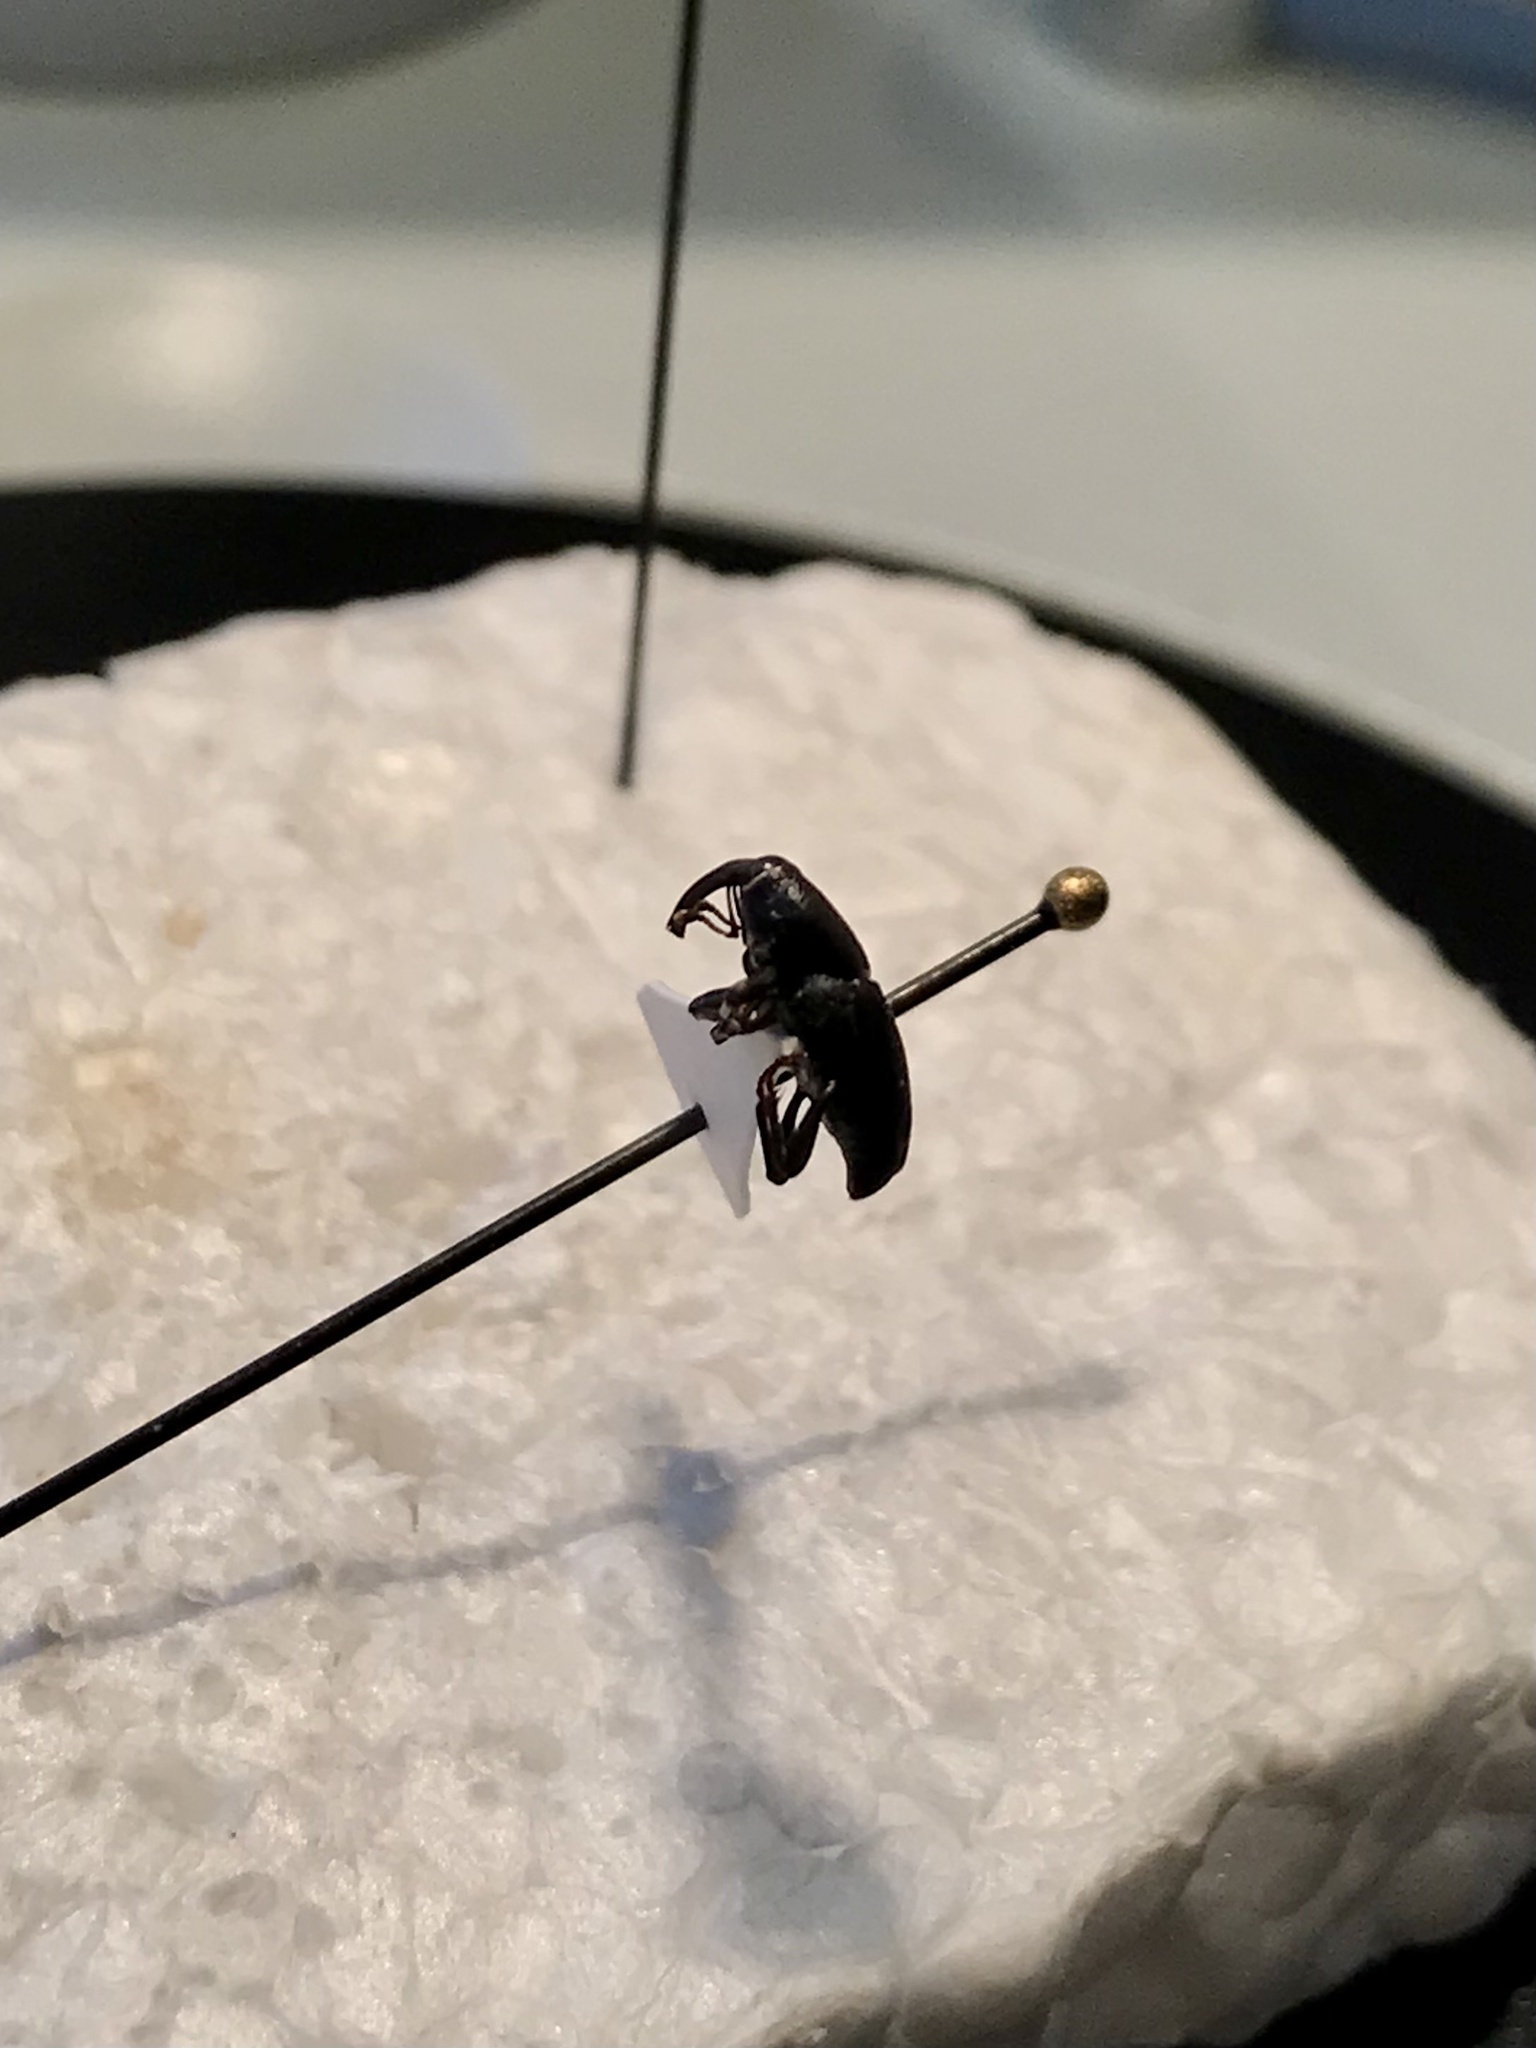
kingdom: Animalia
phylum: Arthropoda
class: Insecta
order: Coleoptera
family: Dryophthoridae
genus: Sphenophorus
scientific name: Sphenophorus interstitialis
